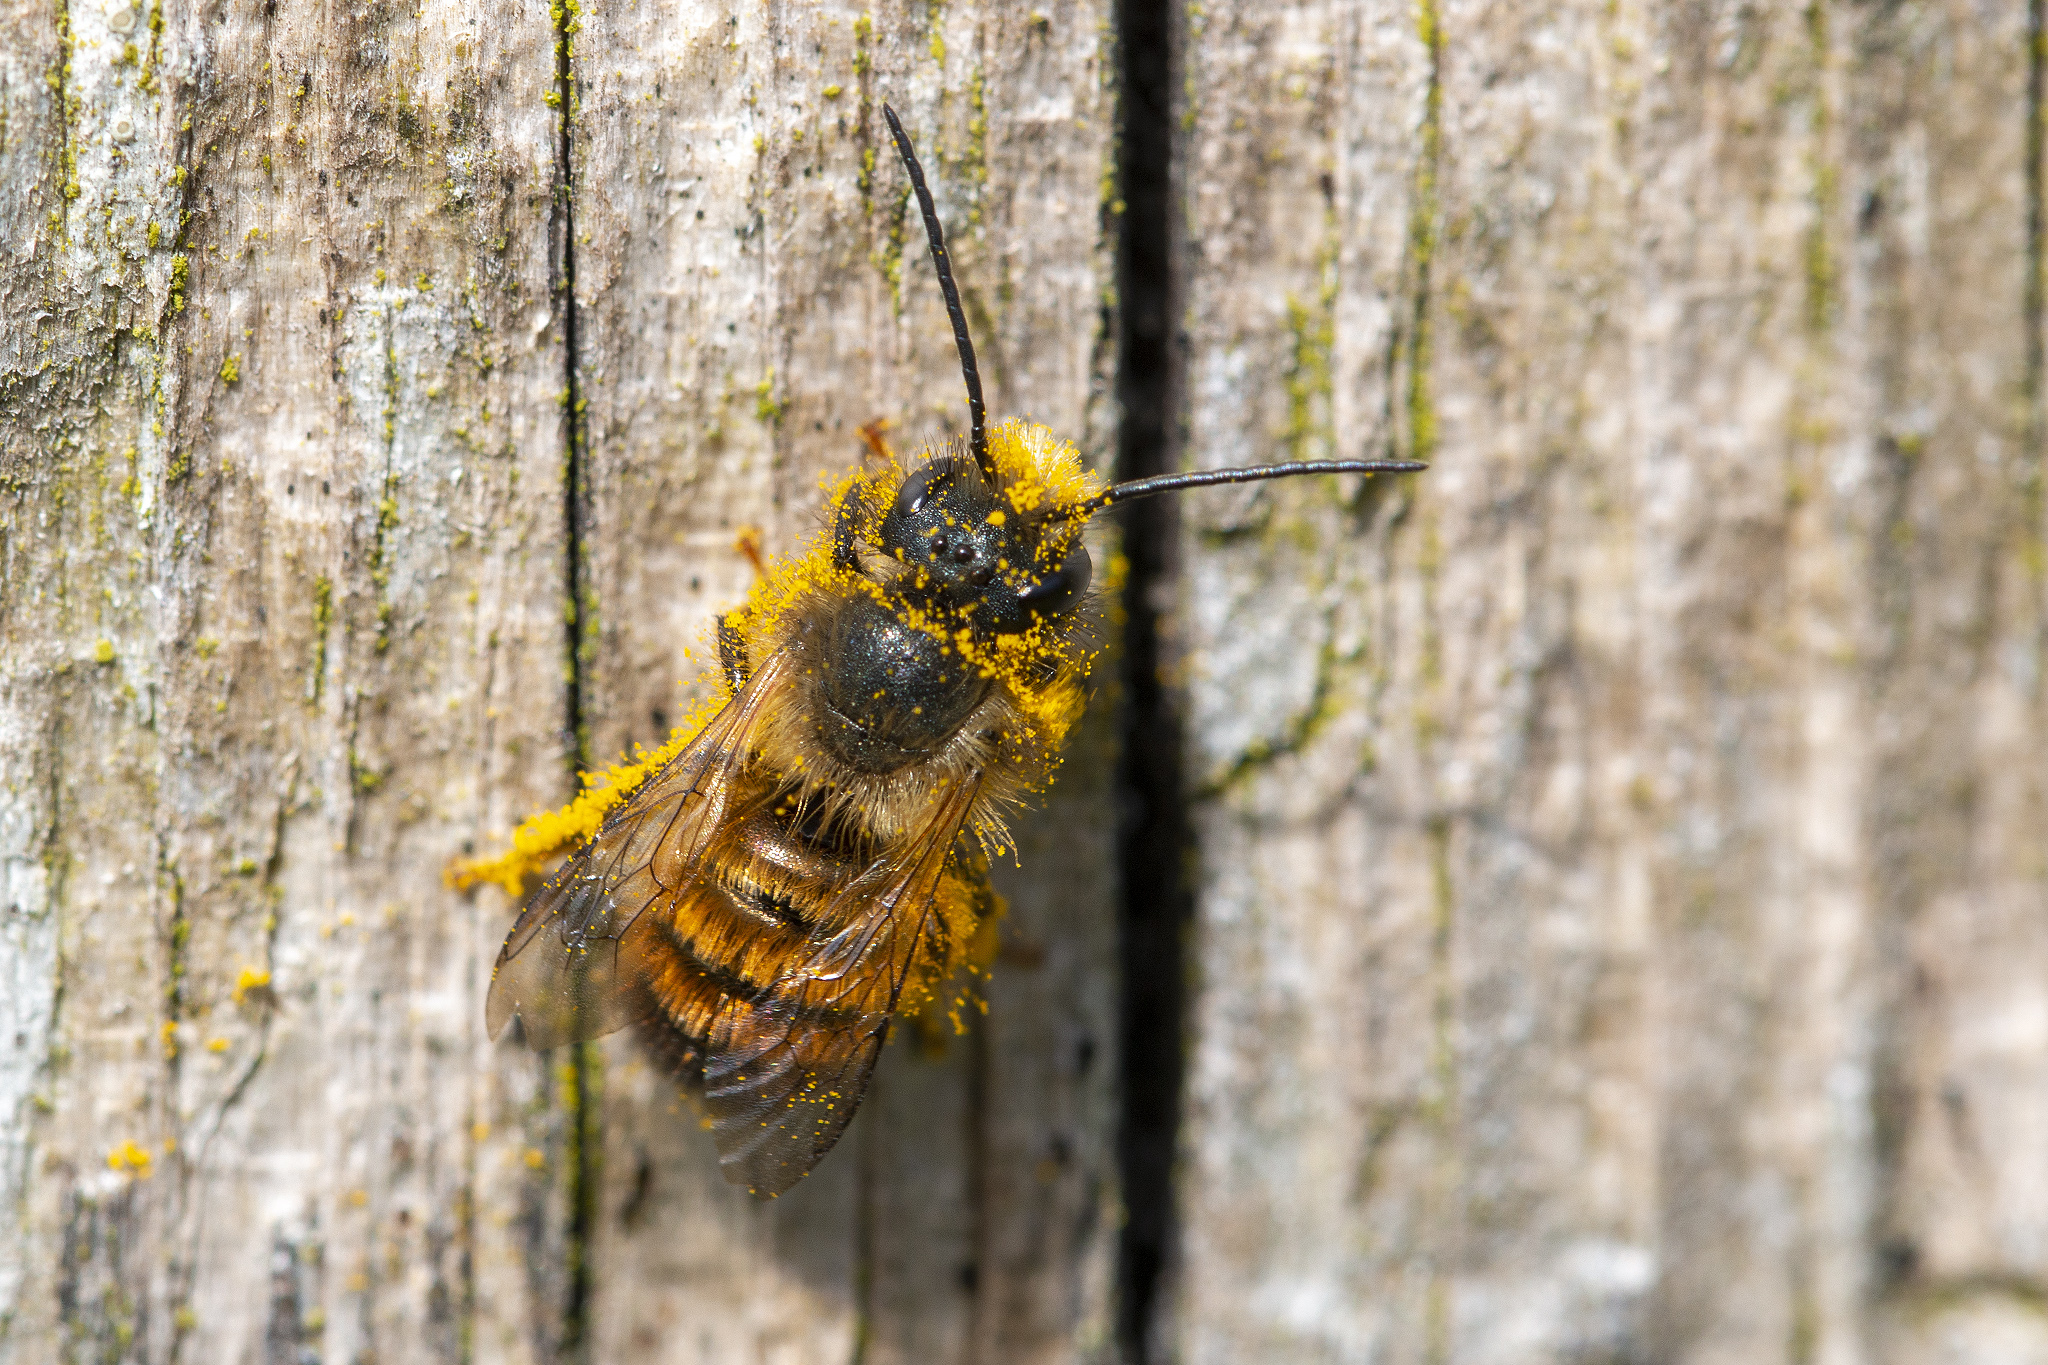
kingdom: Animalia
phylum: Arthropoda
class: Insecta
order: Hymenoptera
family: Megachilidae
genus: Osmia
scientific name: Osmia bicornis
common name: Red mason bee
